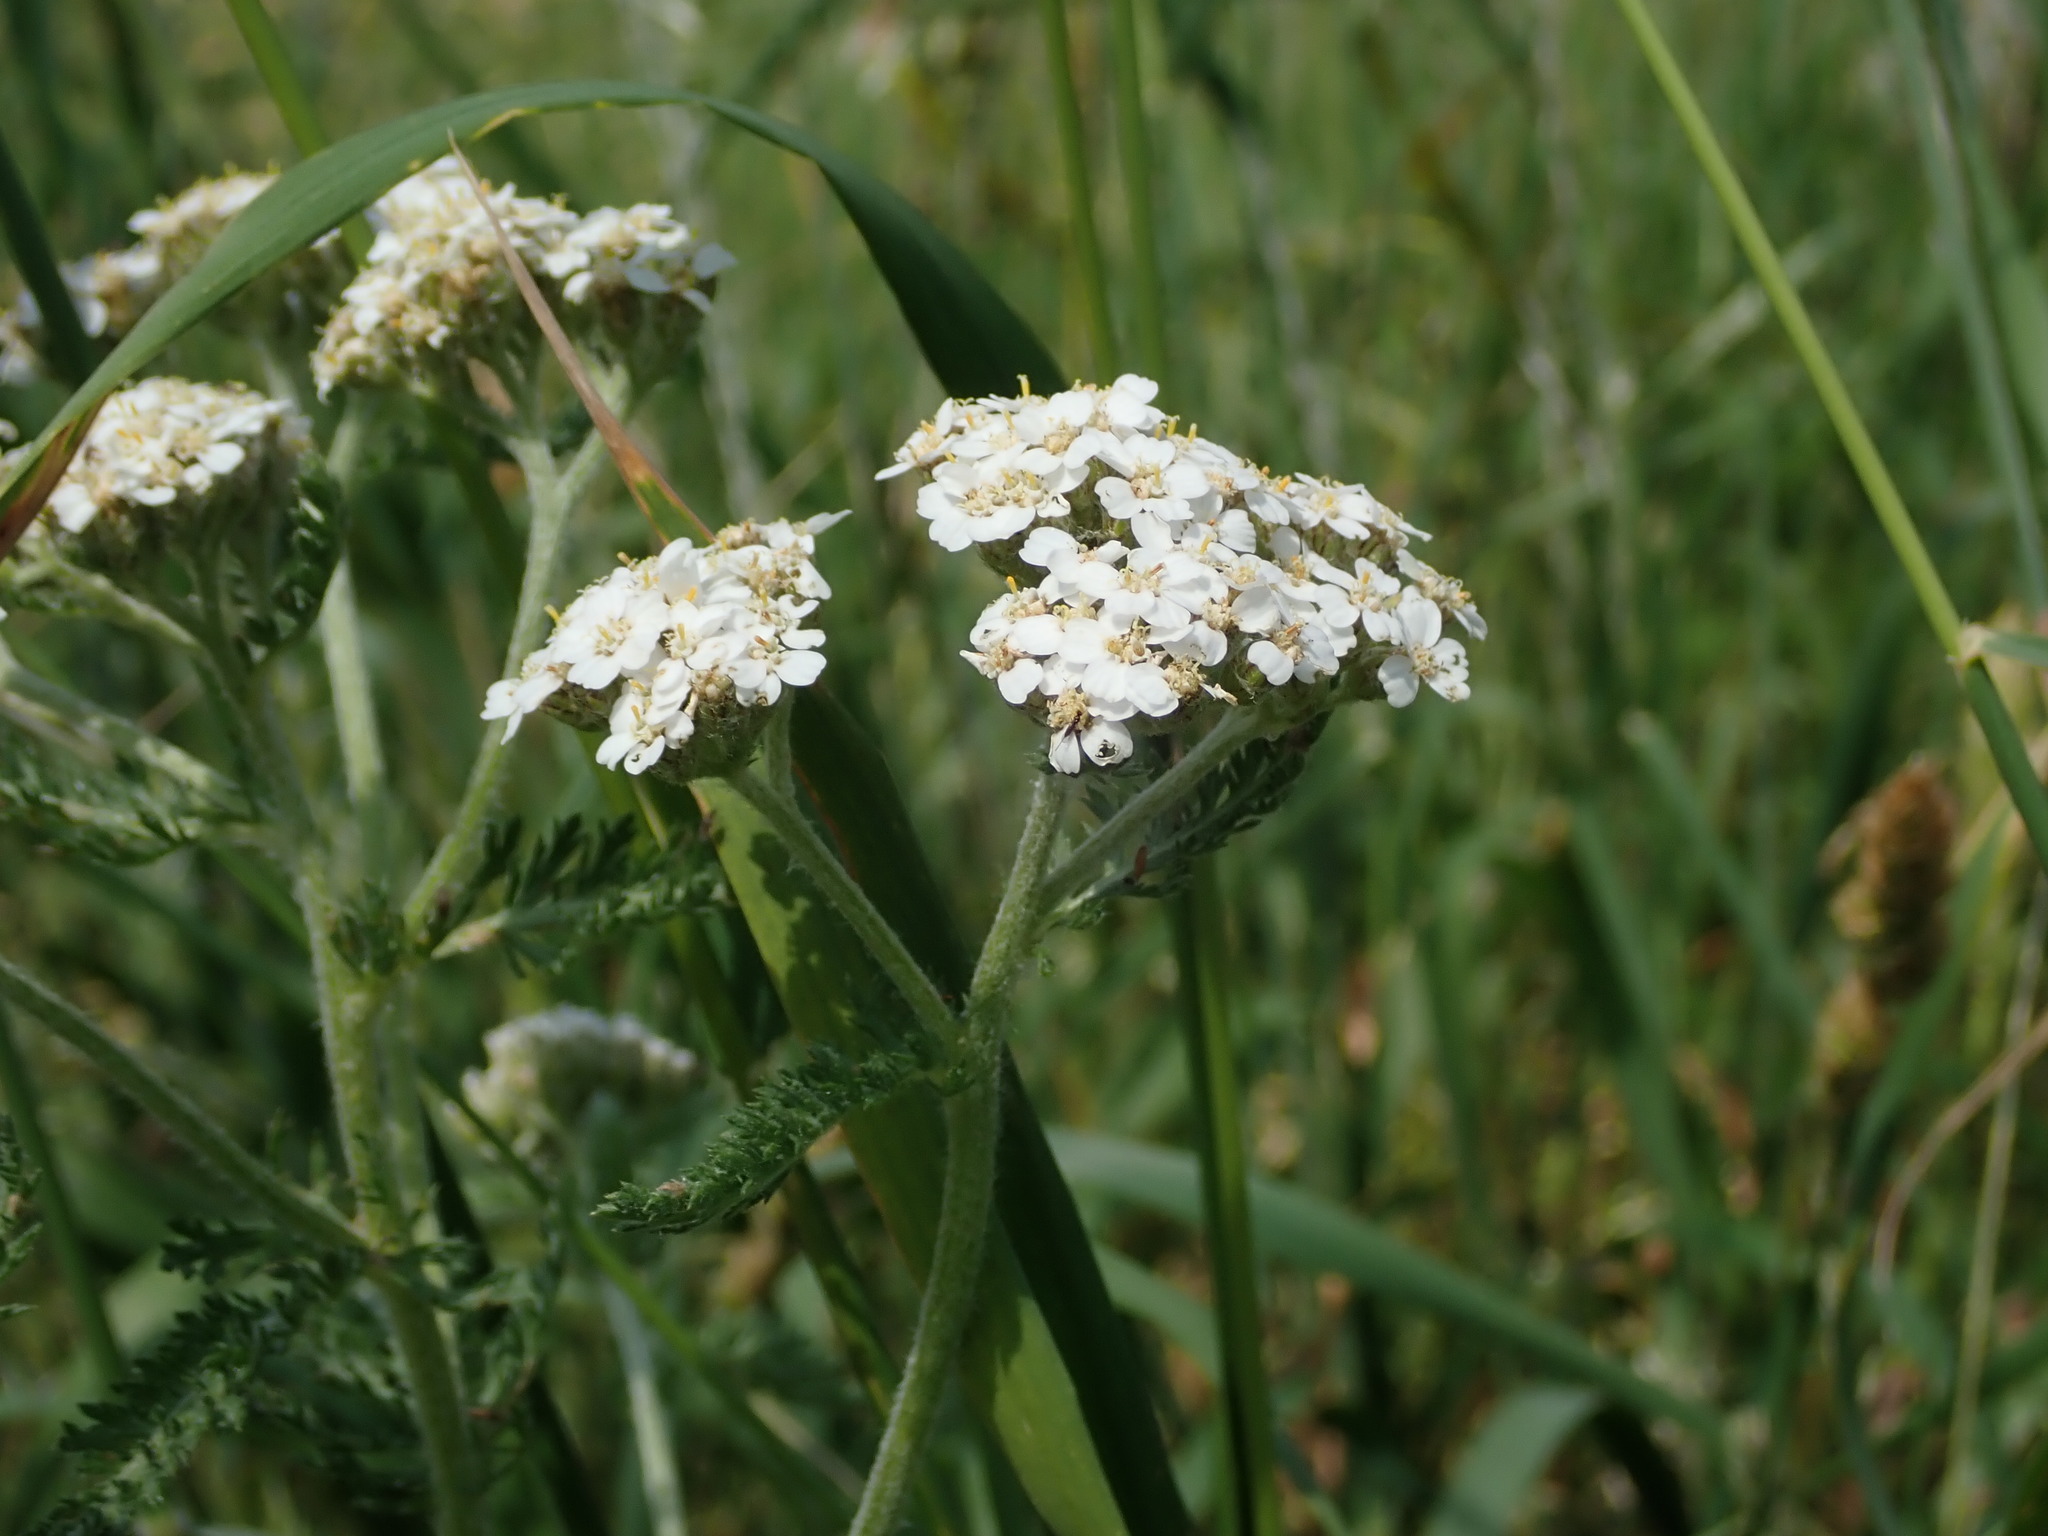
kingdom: Plantae
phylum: Tracheophyta
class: Magnoliopsida
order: Asterales
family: Asteraceae
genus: Achillea
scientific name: Achillea millefolium
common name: Yarrow
